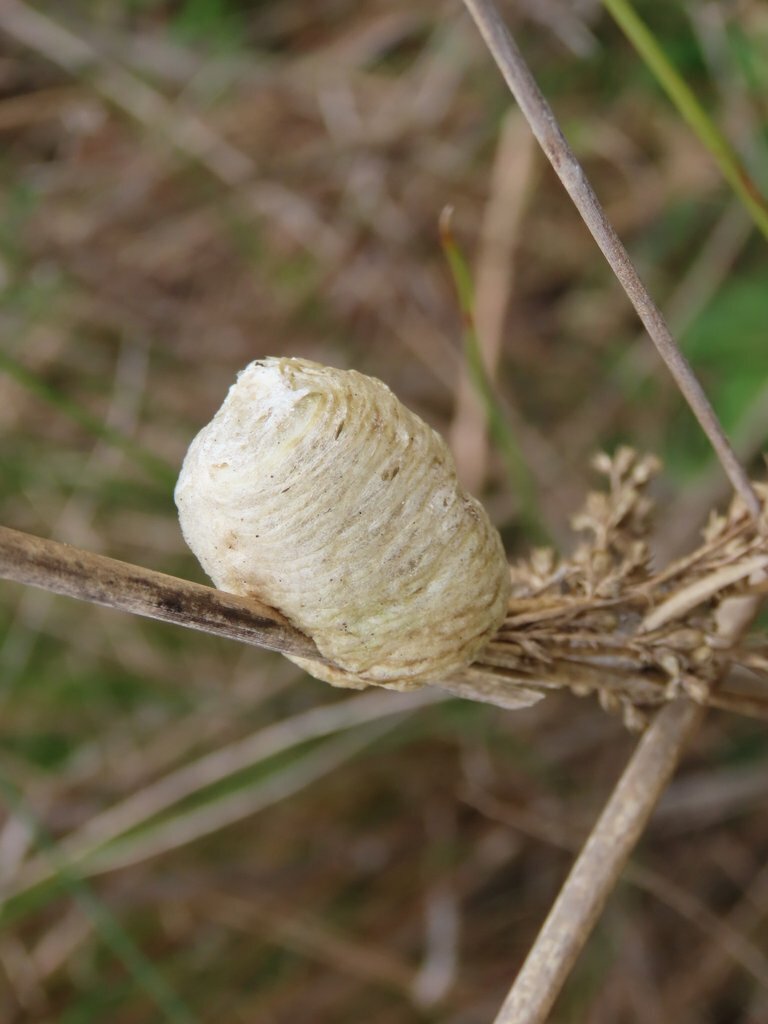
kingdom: Animalia
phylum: Arthropoda
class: Insecta
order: Mantodea
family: Mantidae
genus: Archimantis
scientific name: Archimantis sobrina
